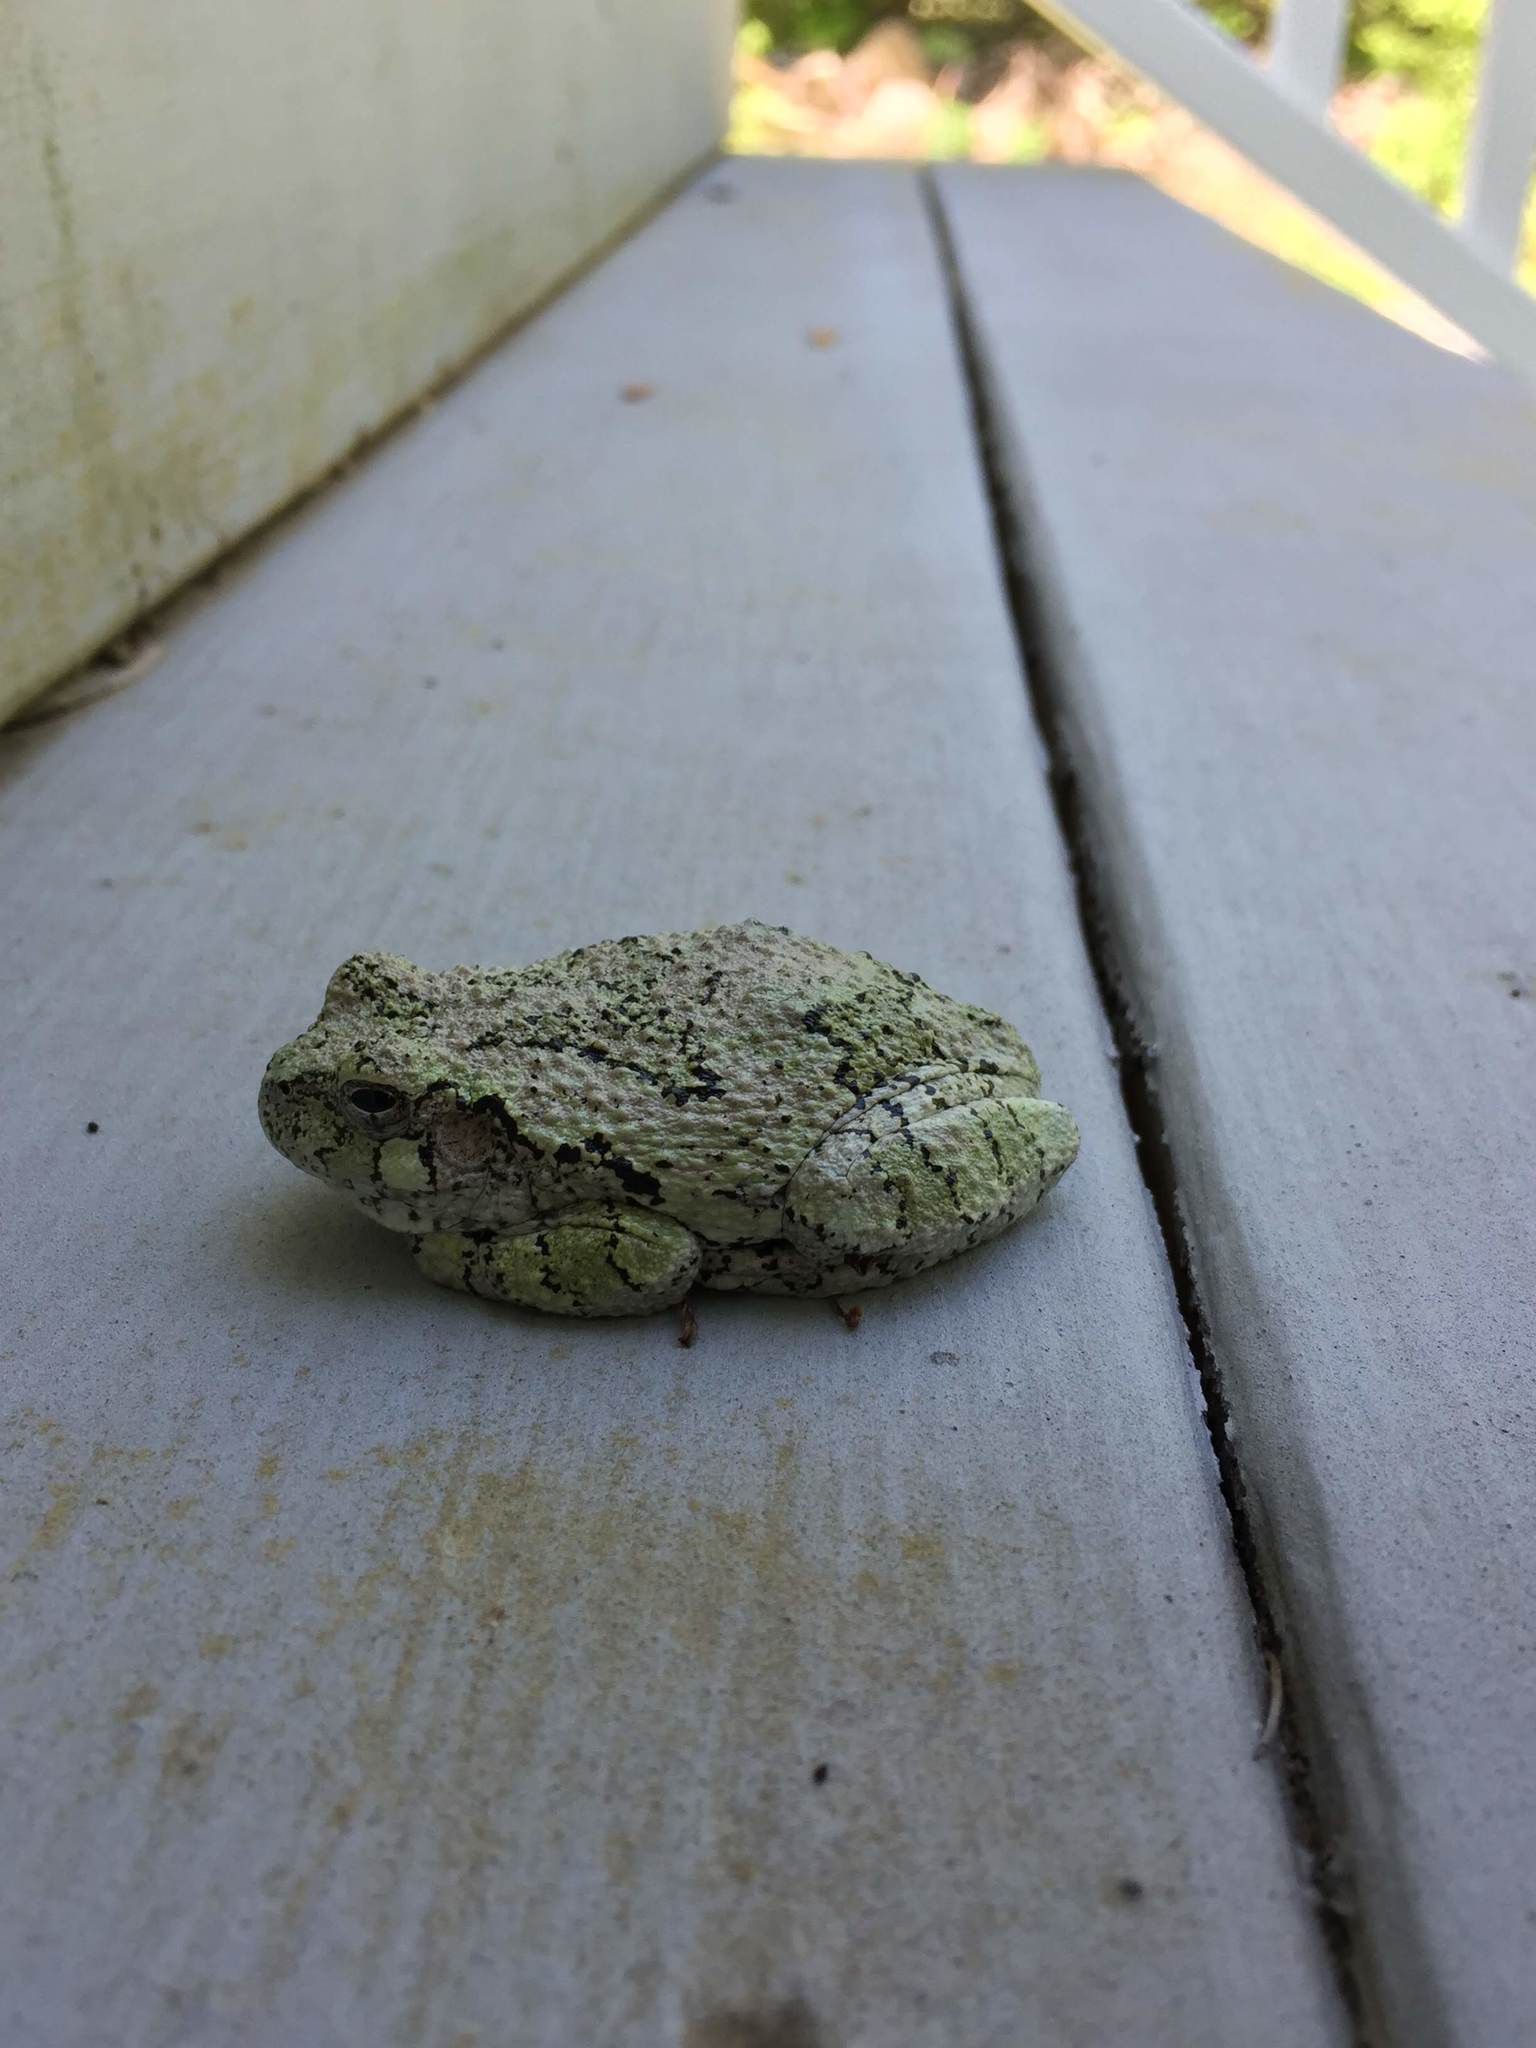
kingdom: Animalia
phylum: Chordata
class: Amphibia
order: Anura
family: Hylidae
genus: Dryophytes
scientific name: Dryophytes versicolor
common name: Gray treefrog
